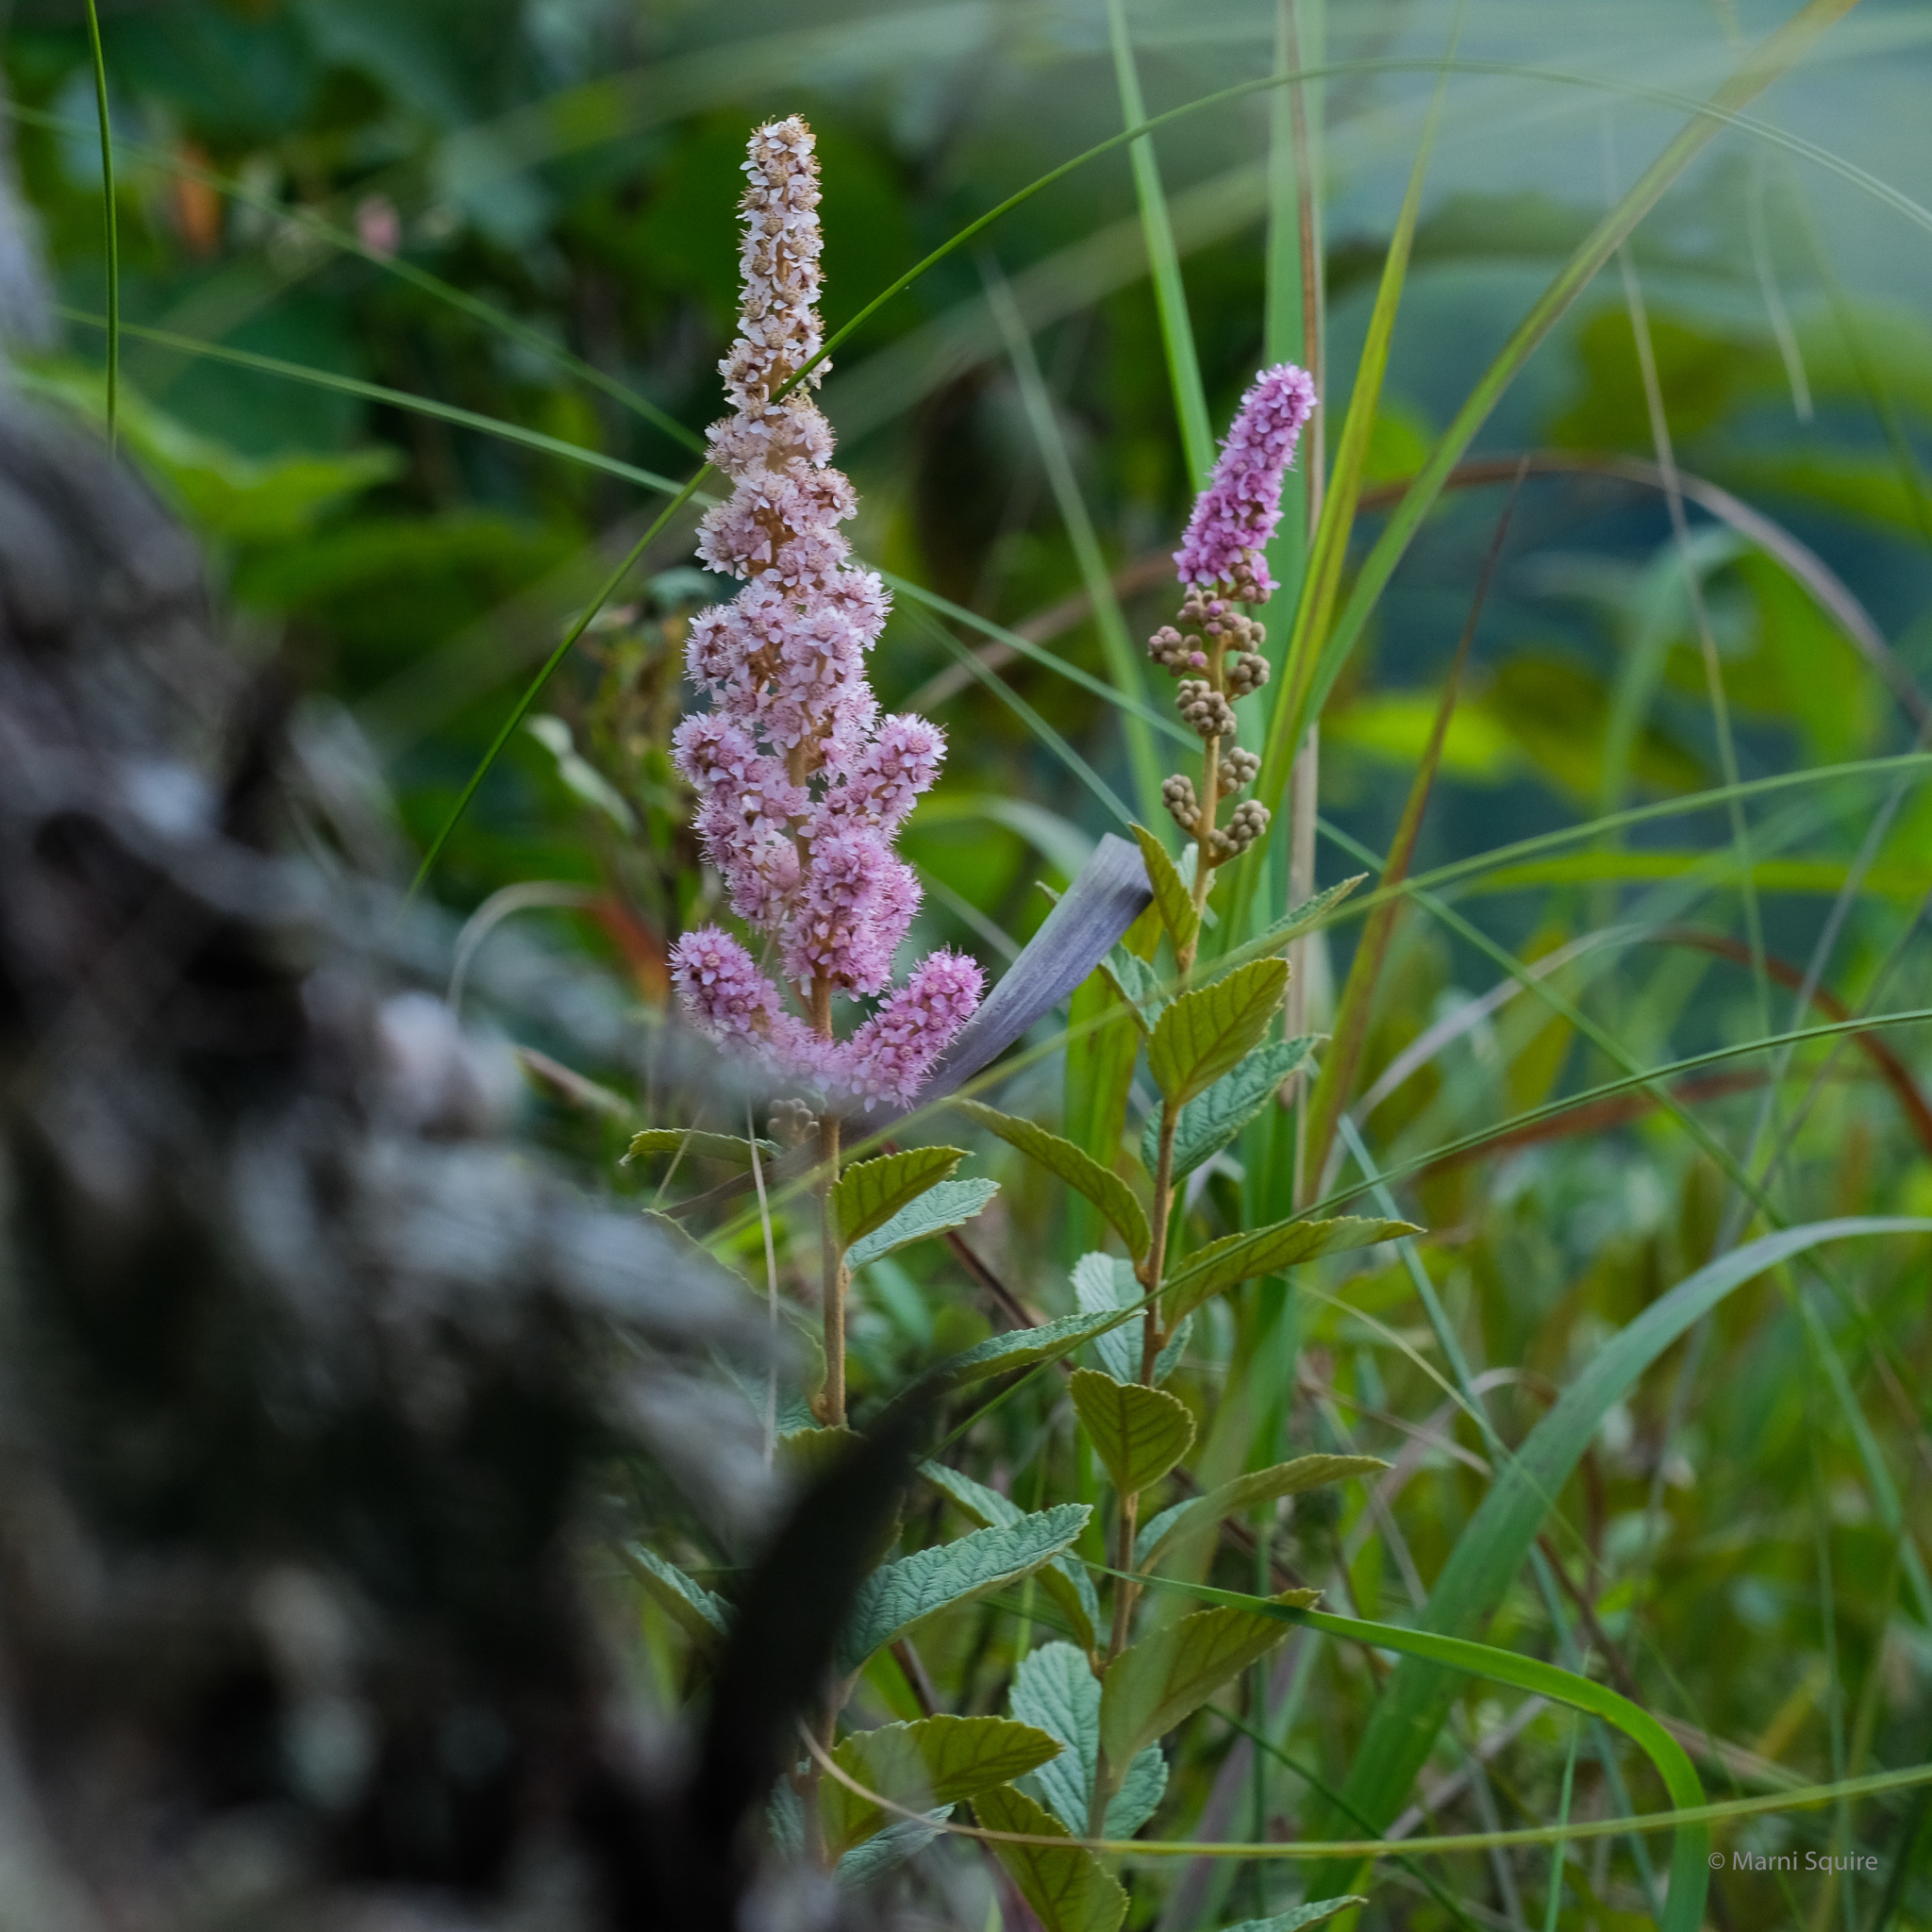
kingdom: Plantae
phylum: Tracheophyta
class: Magnoliopsida
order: Rosales
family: Rosaceae
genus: Spiraea
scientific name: Spiraea tomentosa
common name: Hardhack
